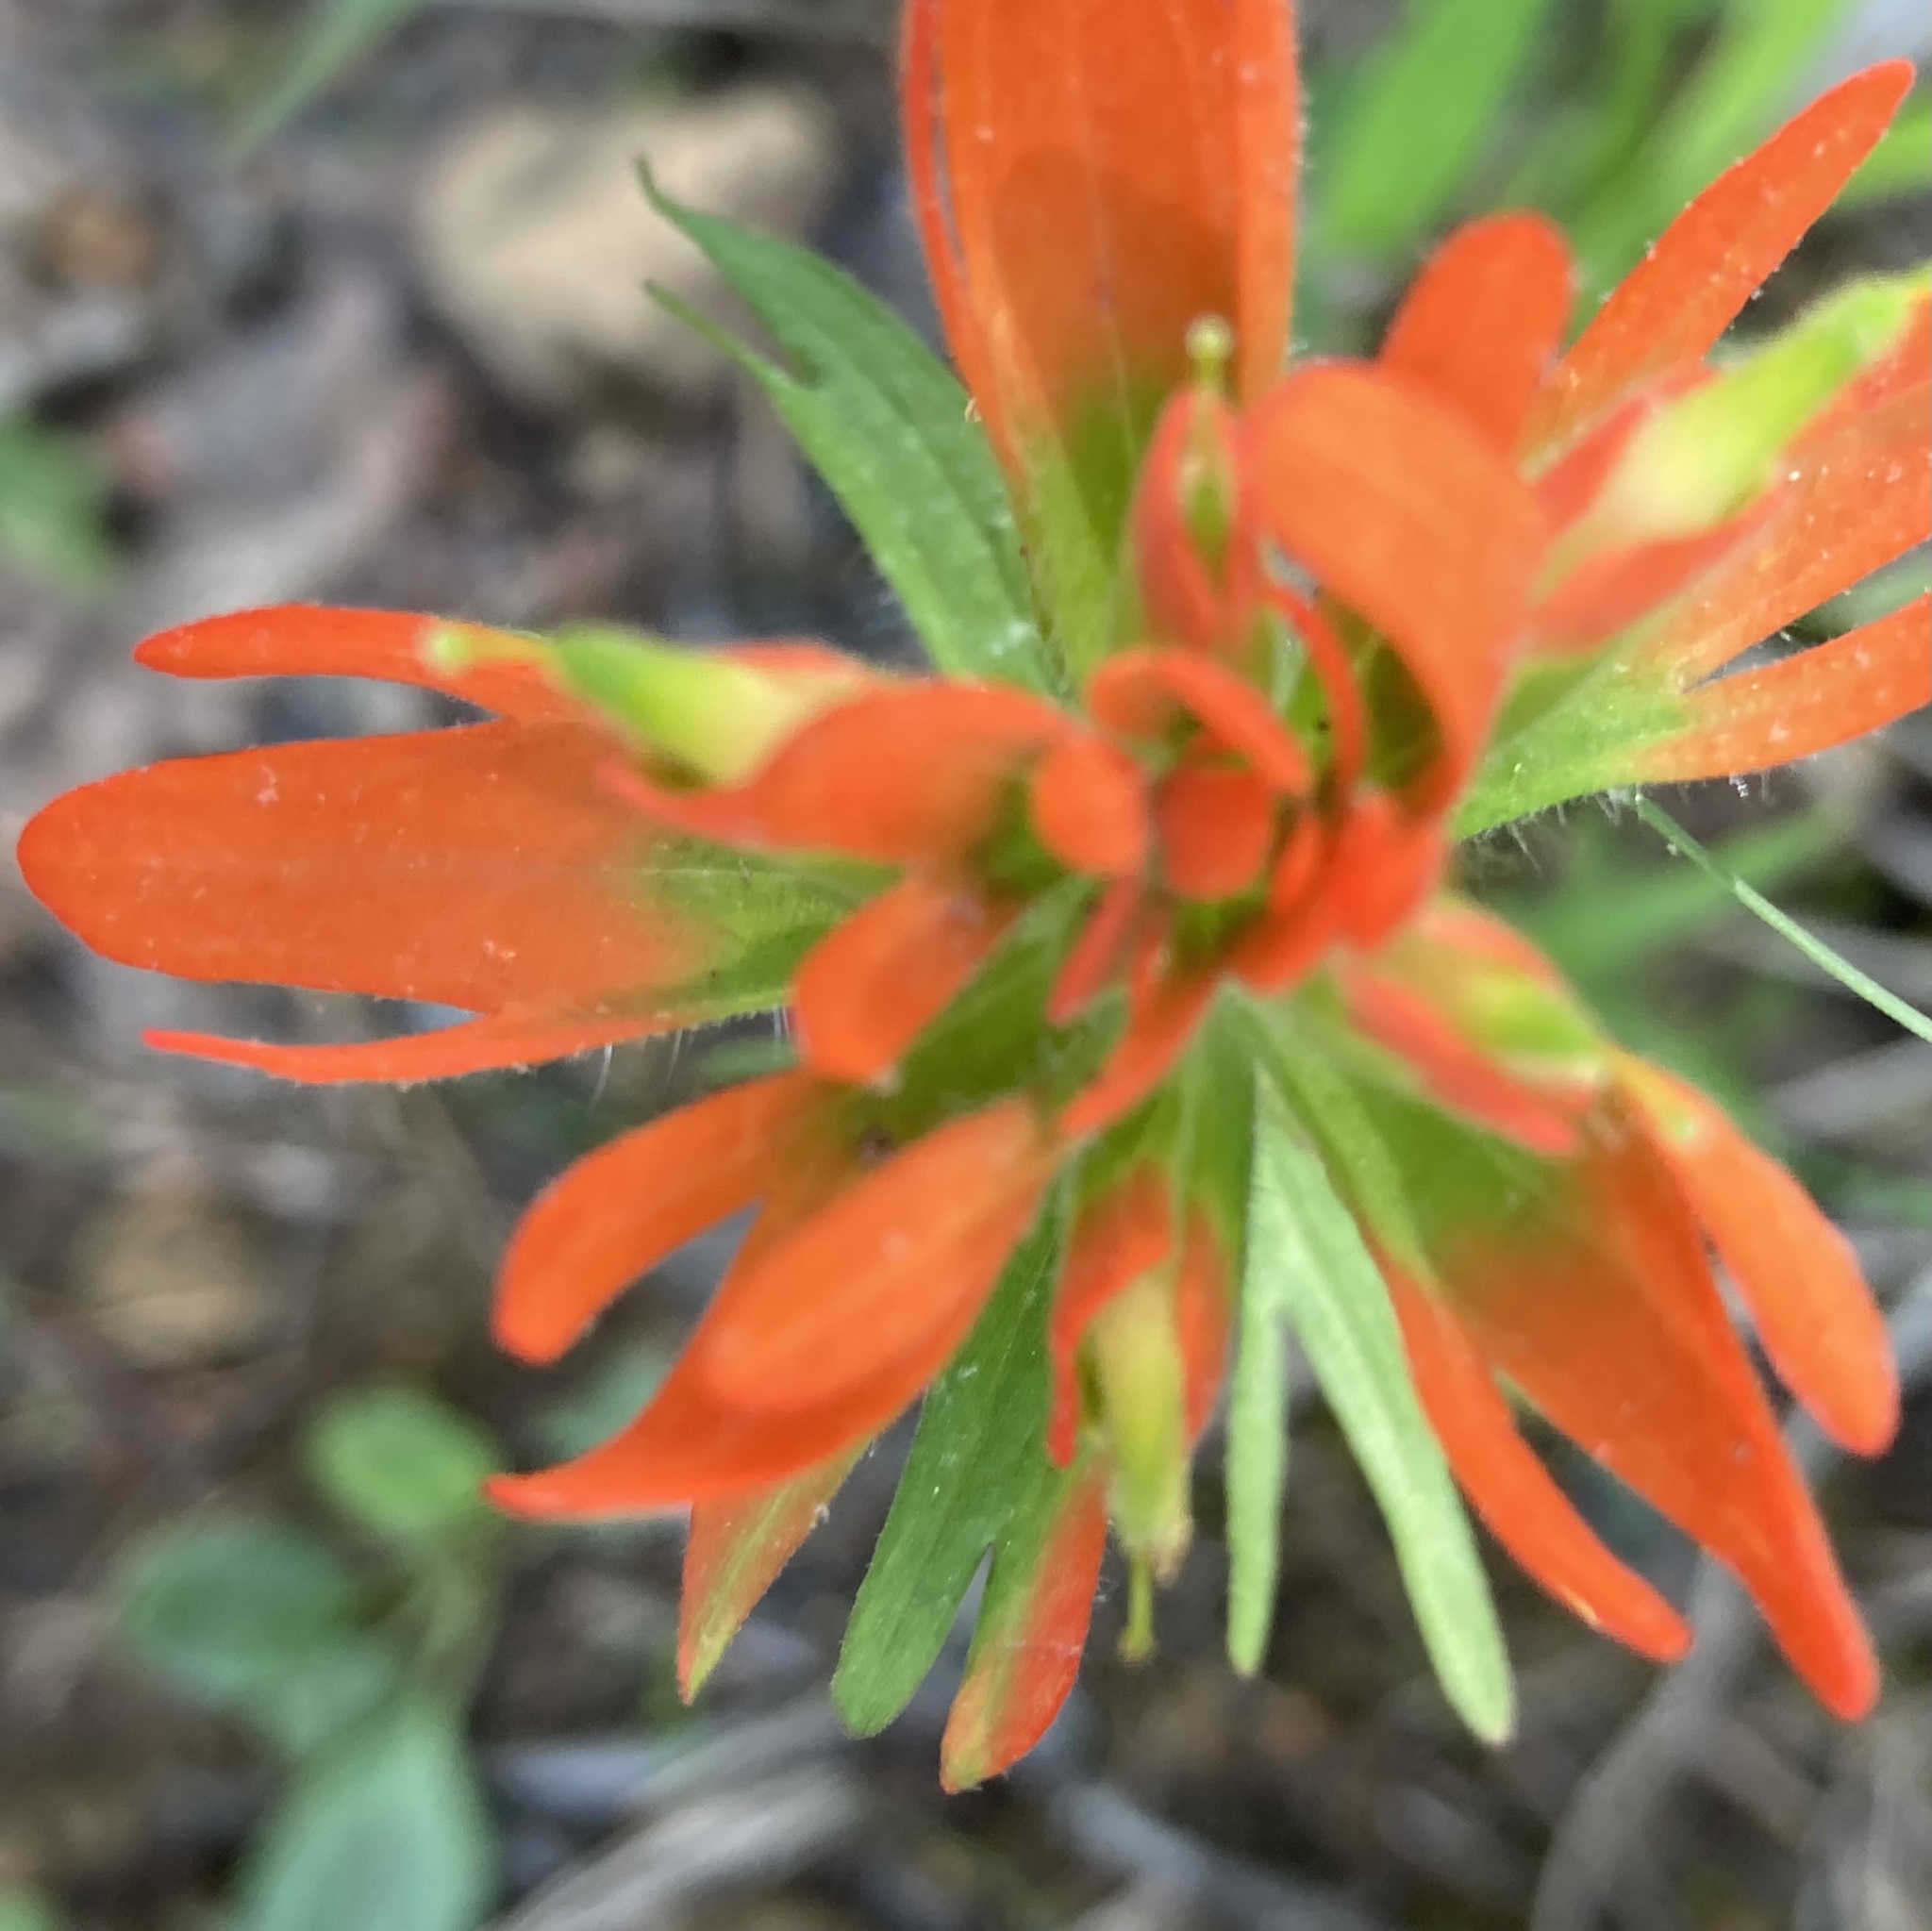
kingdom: Plantae
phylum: Tracheophyta
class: Magnoliopsida
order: Lamiales
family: Orobanchaceae
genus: Castilleja
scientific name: Castilleja coccinea
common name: Scarlet paintbrush
